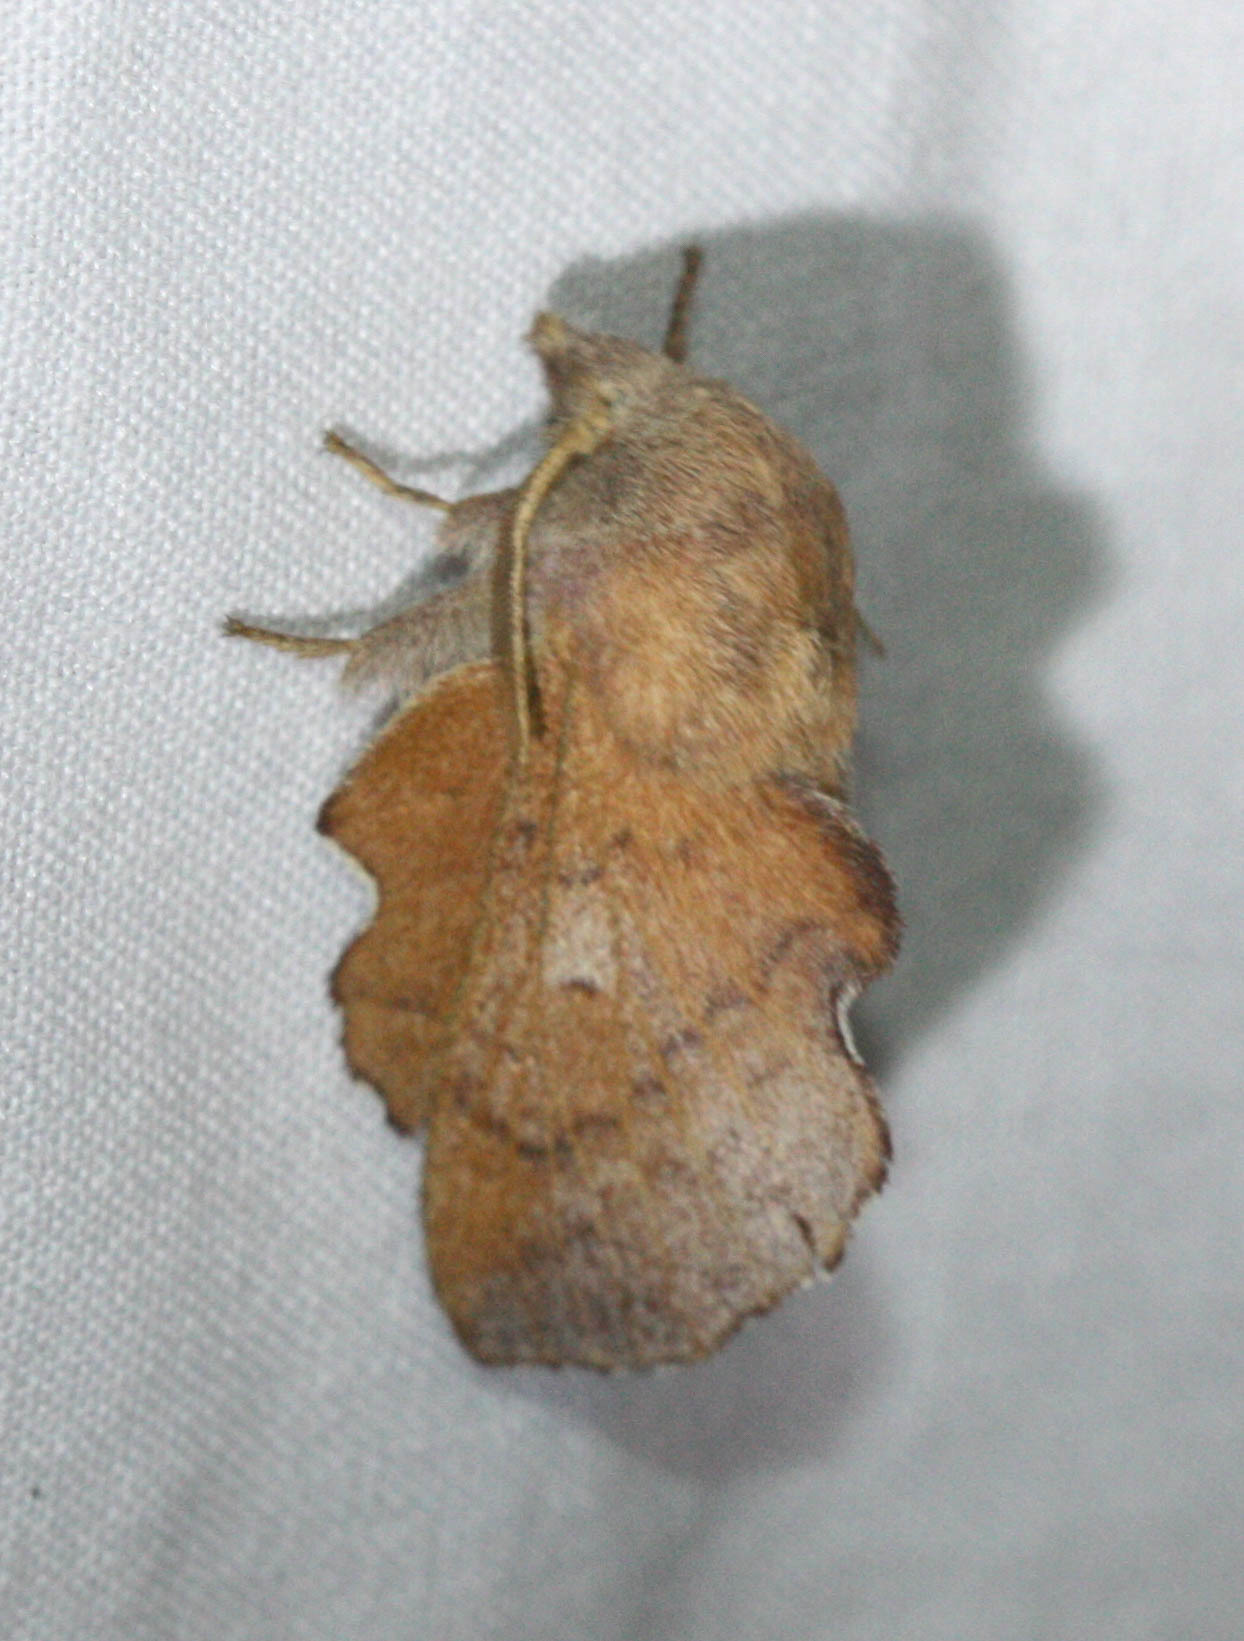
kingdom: Animalia
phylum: Arthropoda
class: Insecta
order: Lepidoptera
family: Lasiocampidae
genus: Phyllodesma
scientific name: Phyllodesma americana
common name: American lappet moth
